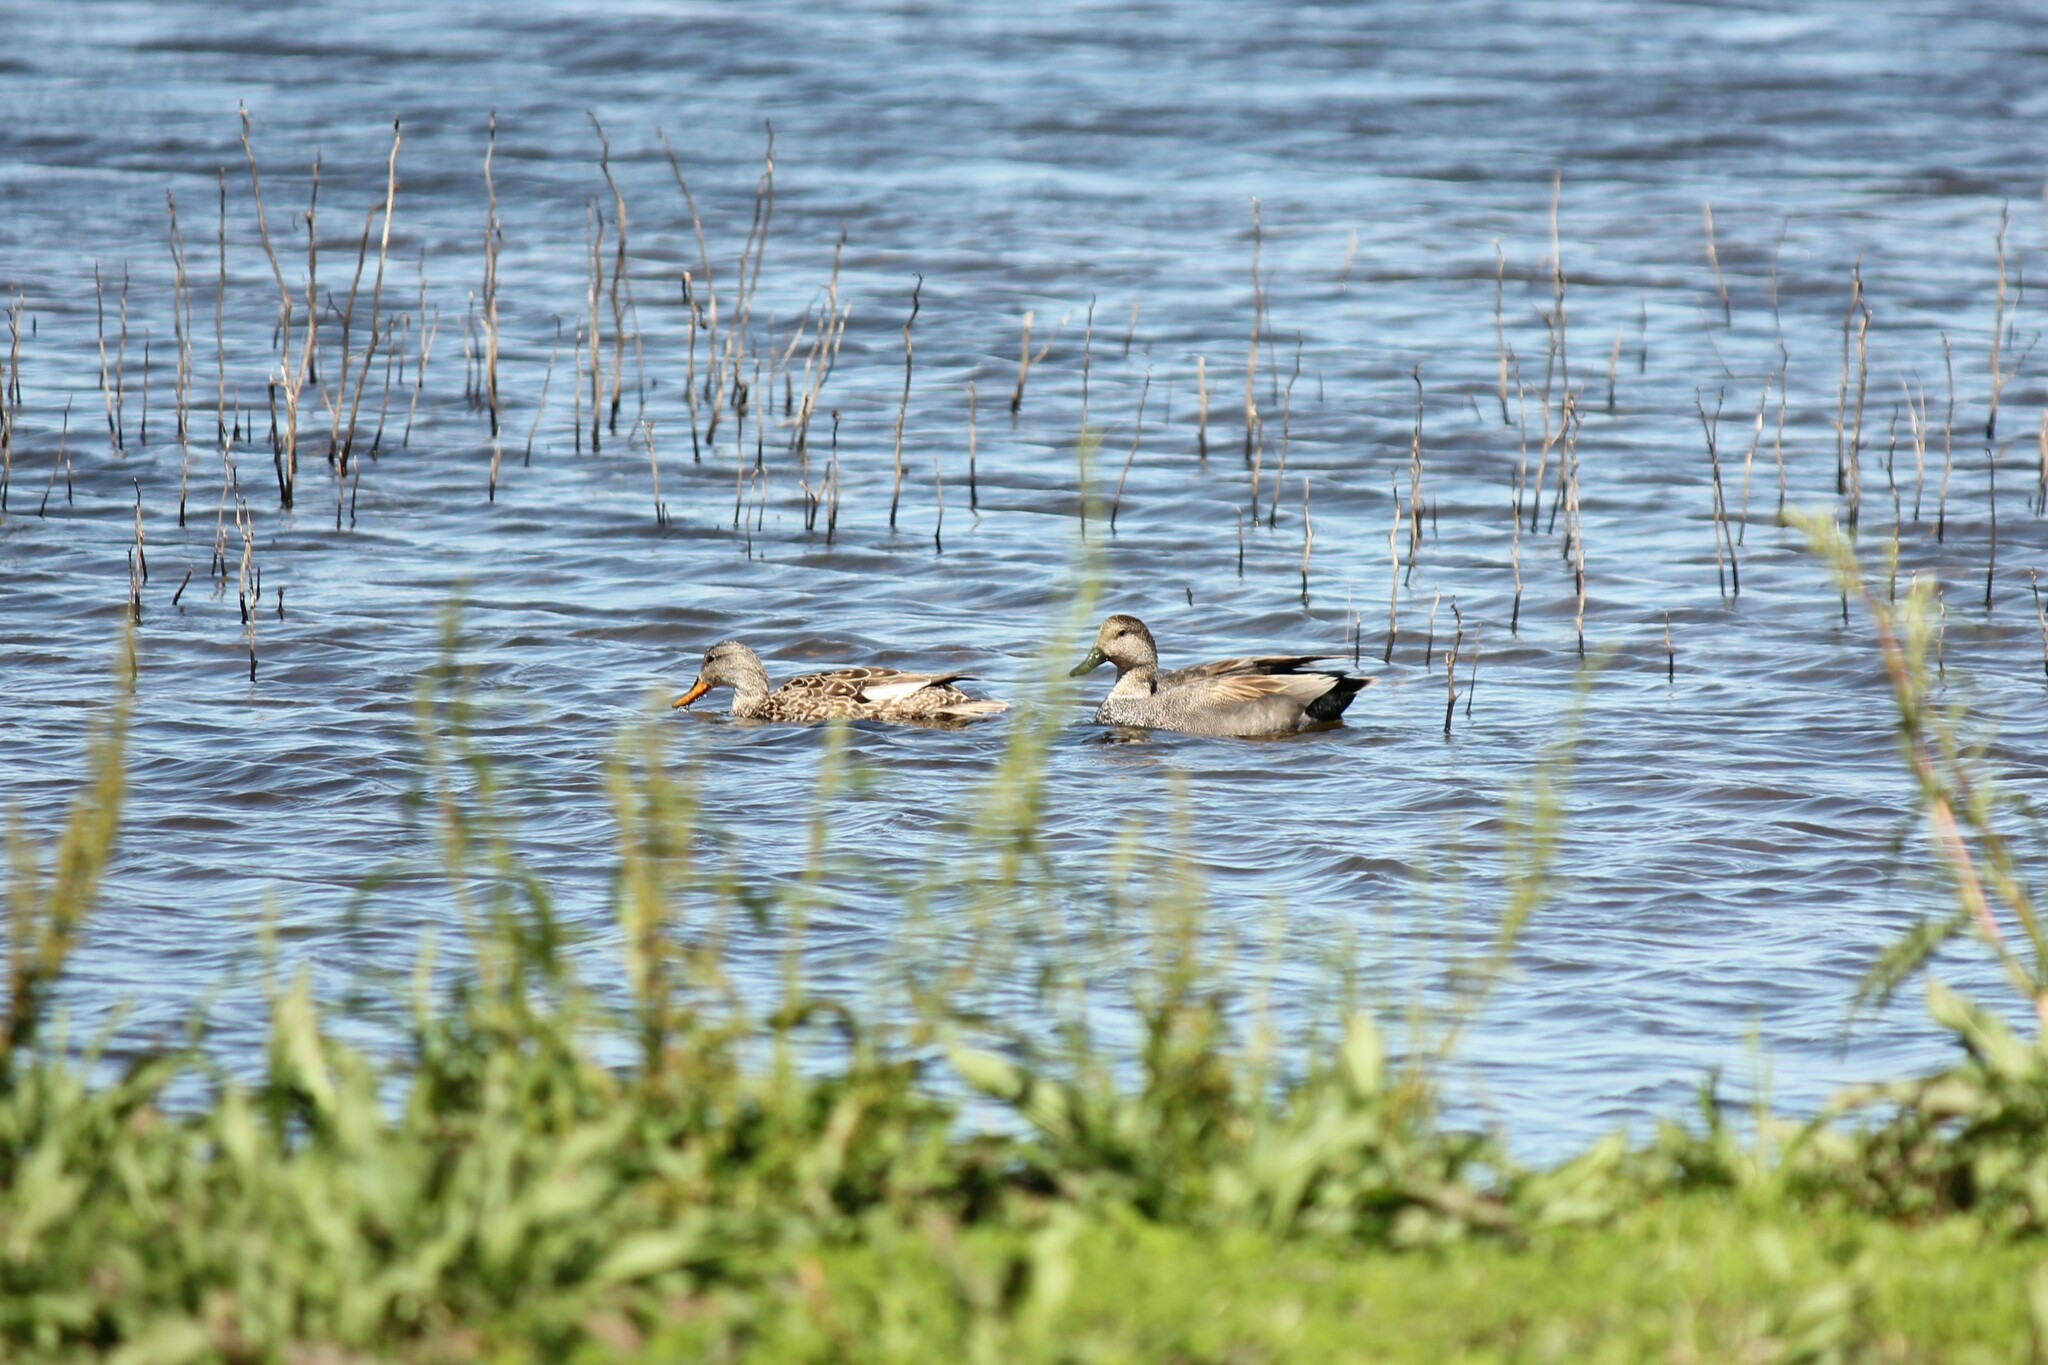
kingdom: Animalia
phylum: Chordata
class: Aves
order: Anseriformes
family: Anatidae
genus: Mareca
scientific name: Mareca strepera
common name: Gadwall
